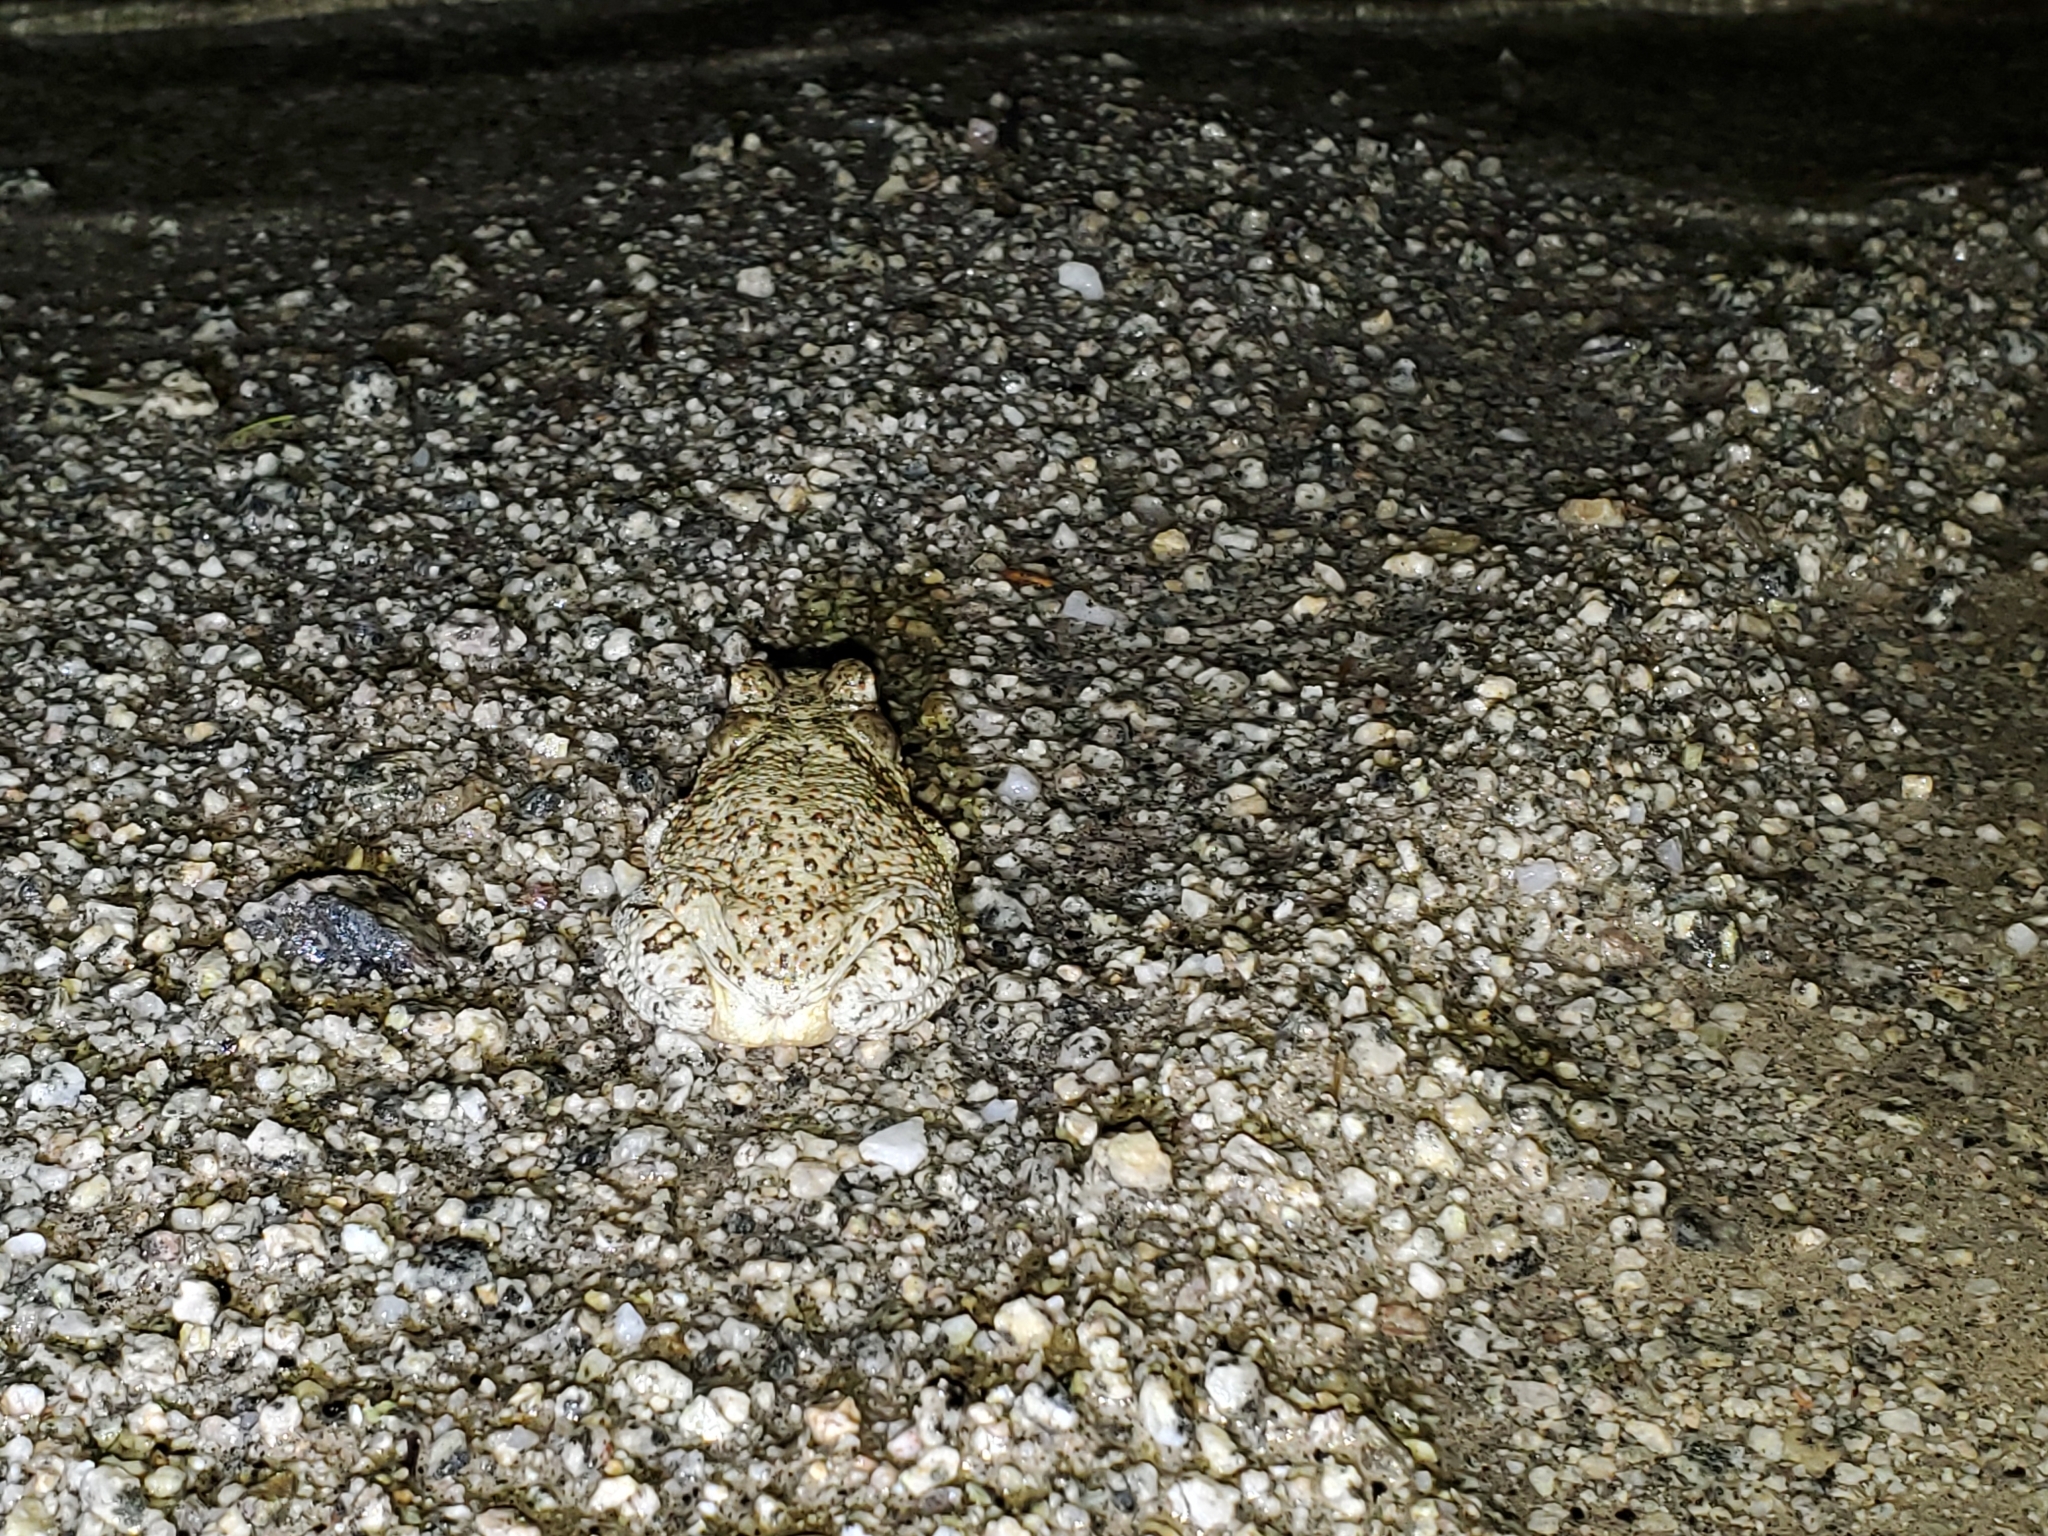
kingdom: Animalia
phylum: Chordata
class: Amphibia
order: Anura
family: Bufonidae
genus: Anaxyrus
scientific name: Anaxyrus punctatus
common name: Red-spotted toad
